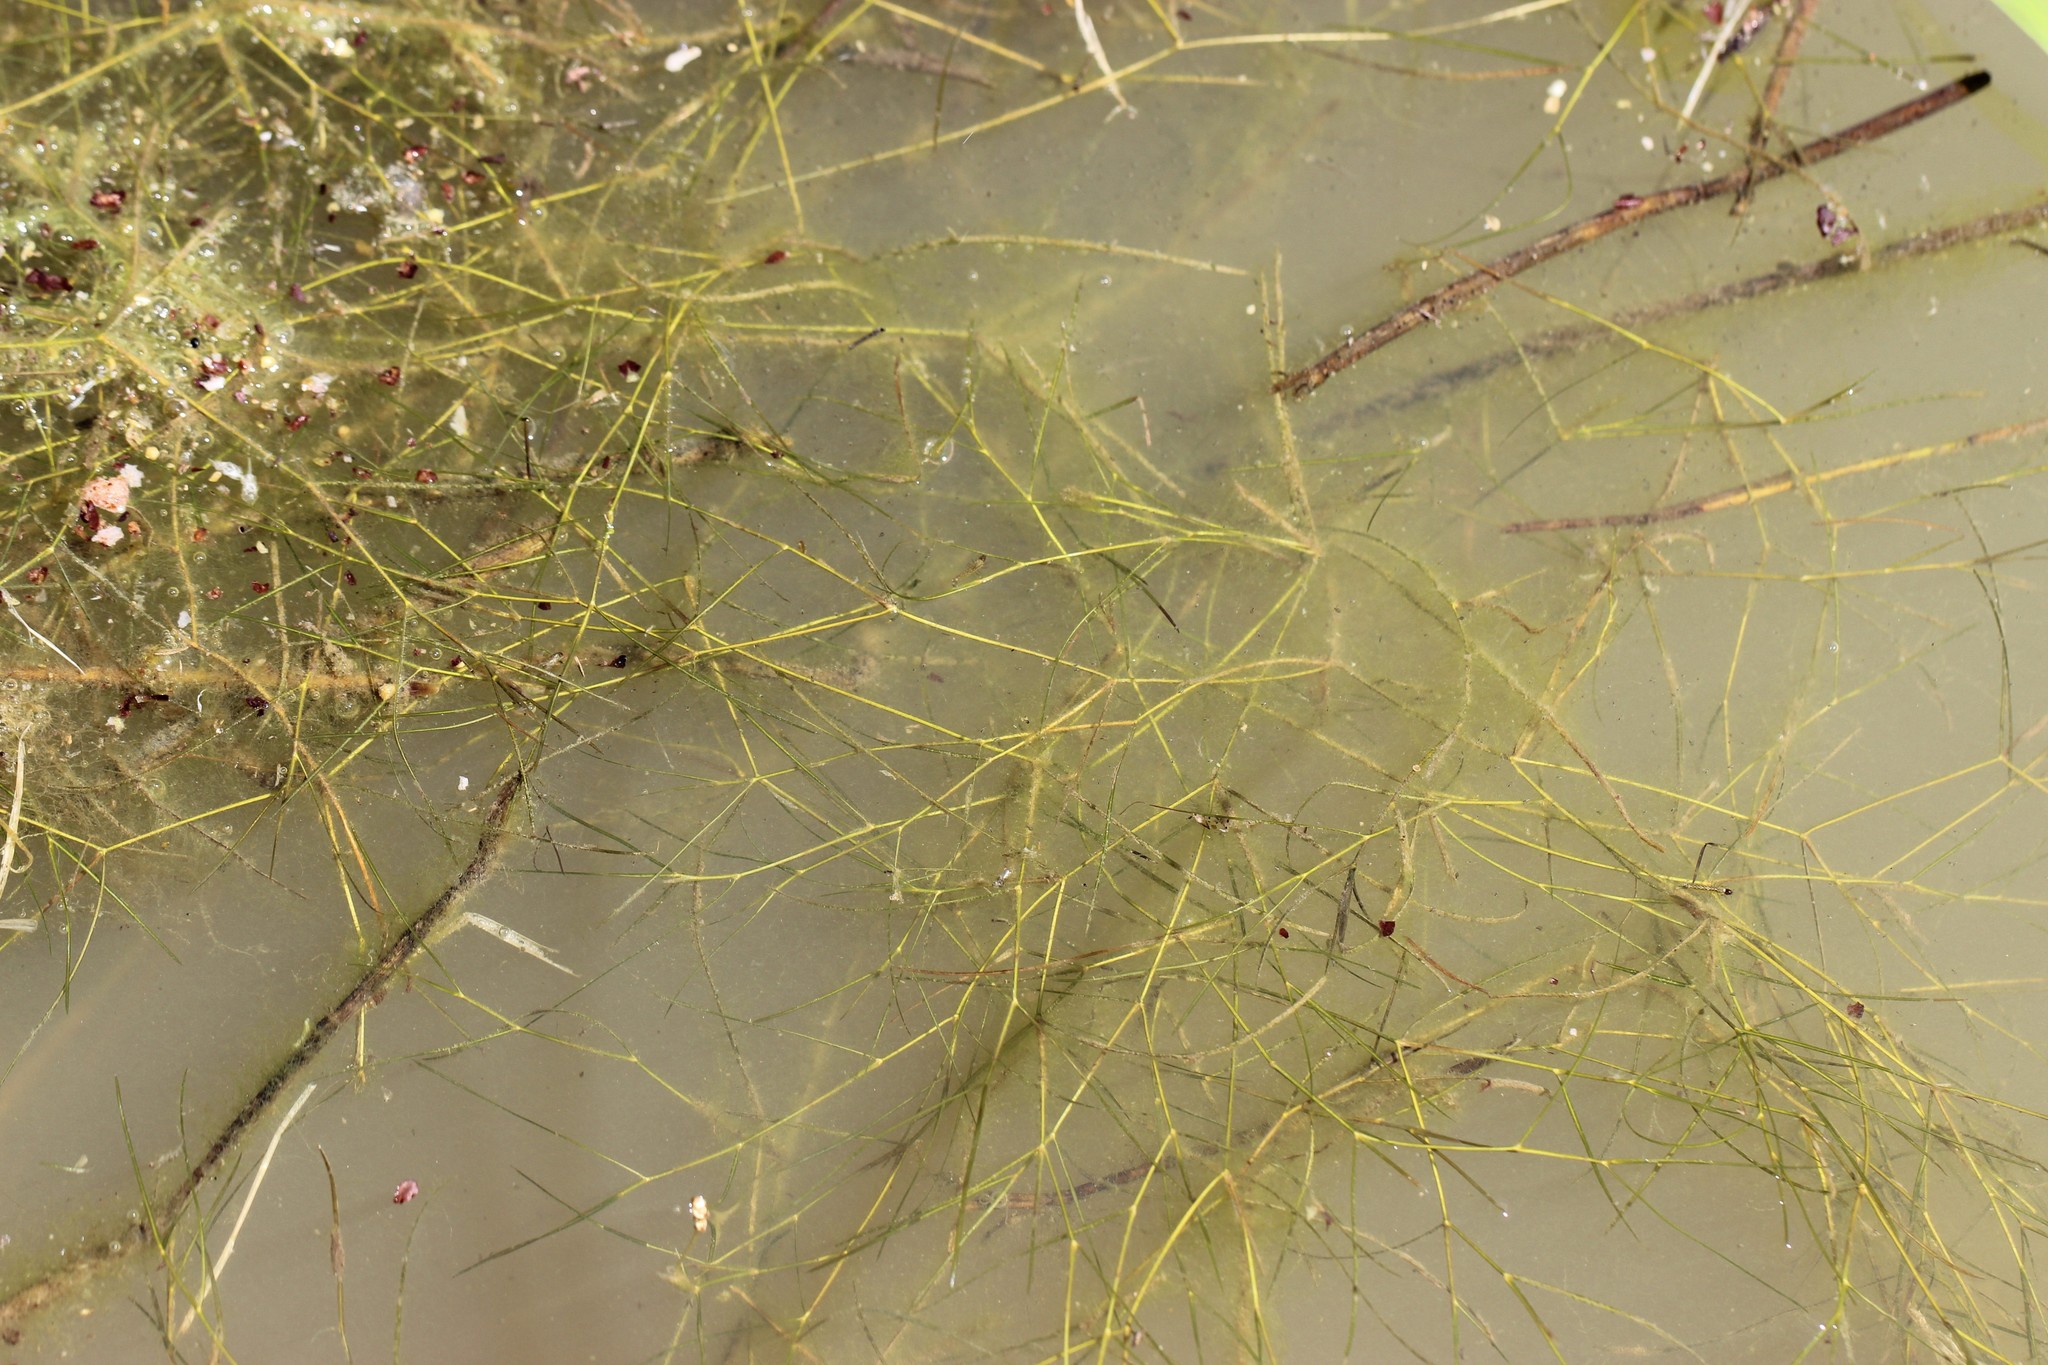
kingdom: Plantae
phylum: Tracheophyta
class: Liliopsida
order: Alismatales
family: Potamogetonaceae
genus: Stuckenia
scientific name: Stuckenia pectinata
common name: Sago pondweed
